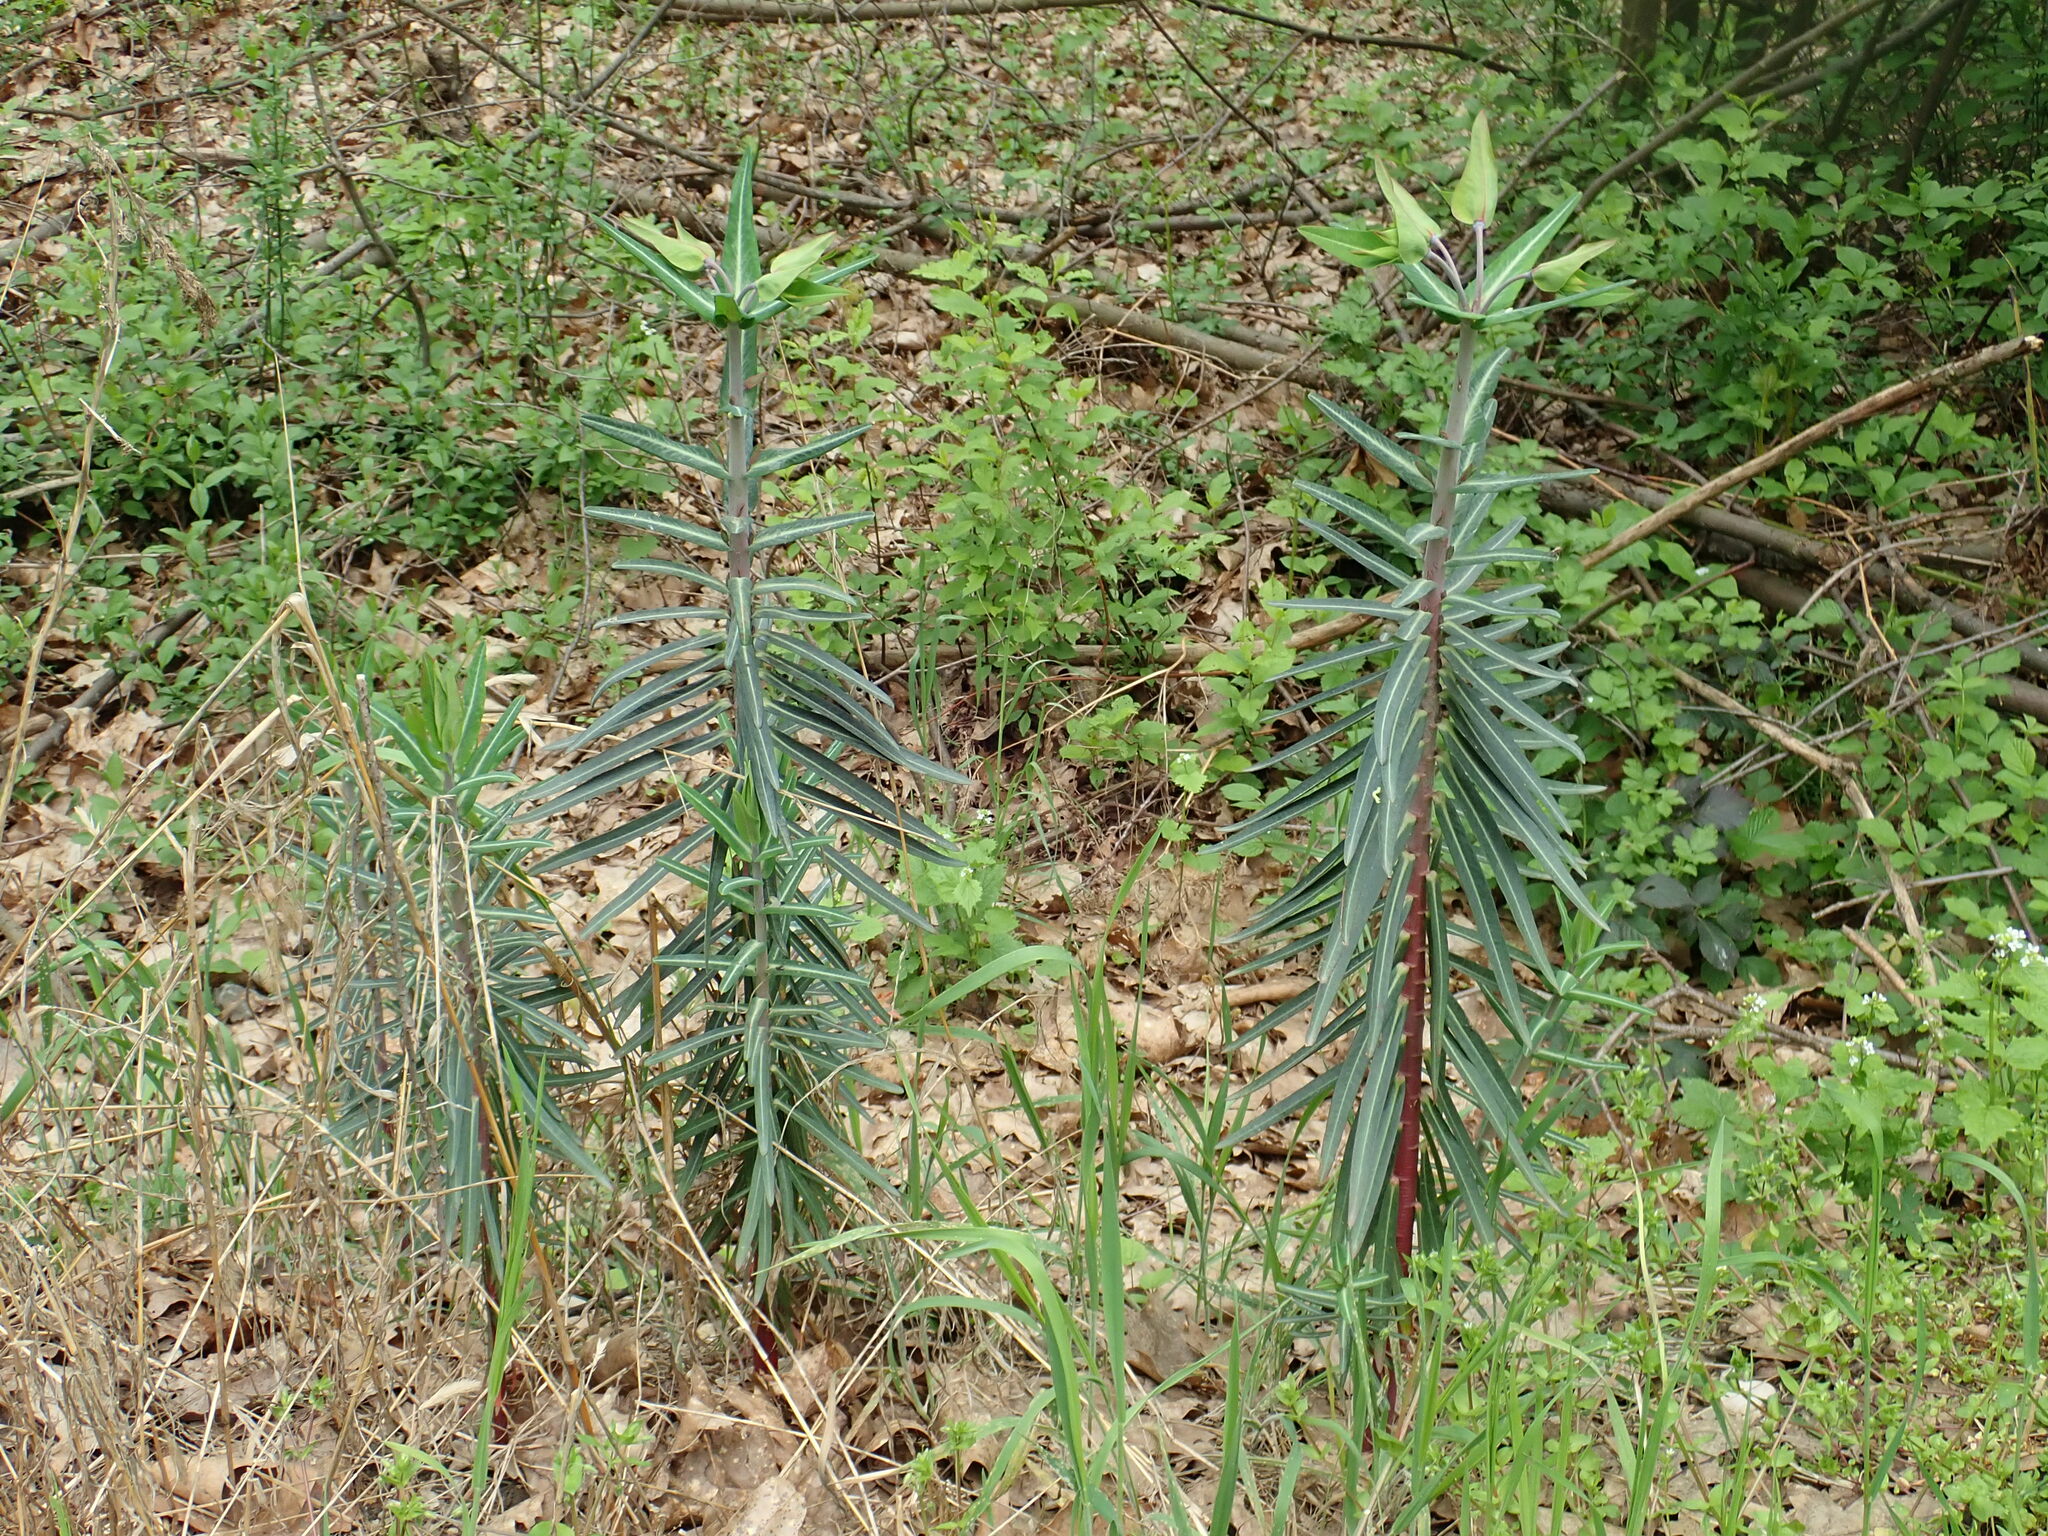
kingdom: Plantae
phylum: Tracheophyta
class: Magnoliopsida
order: Malpighiales
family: Euphorbiaceae
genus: Euphorbia
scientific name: Euphorbia lathyris
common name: Caper spurge
